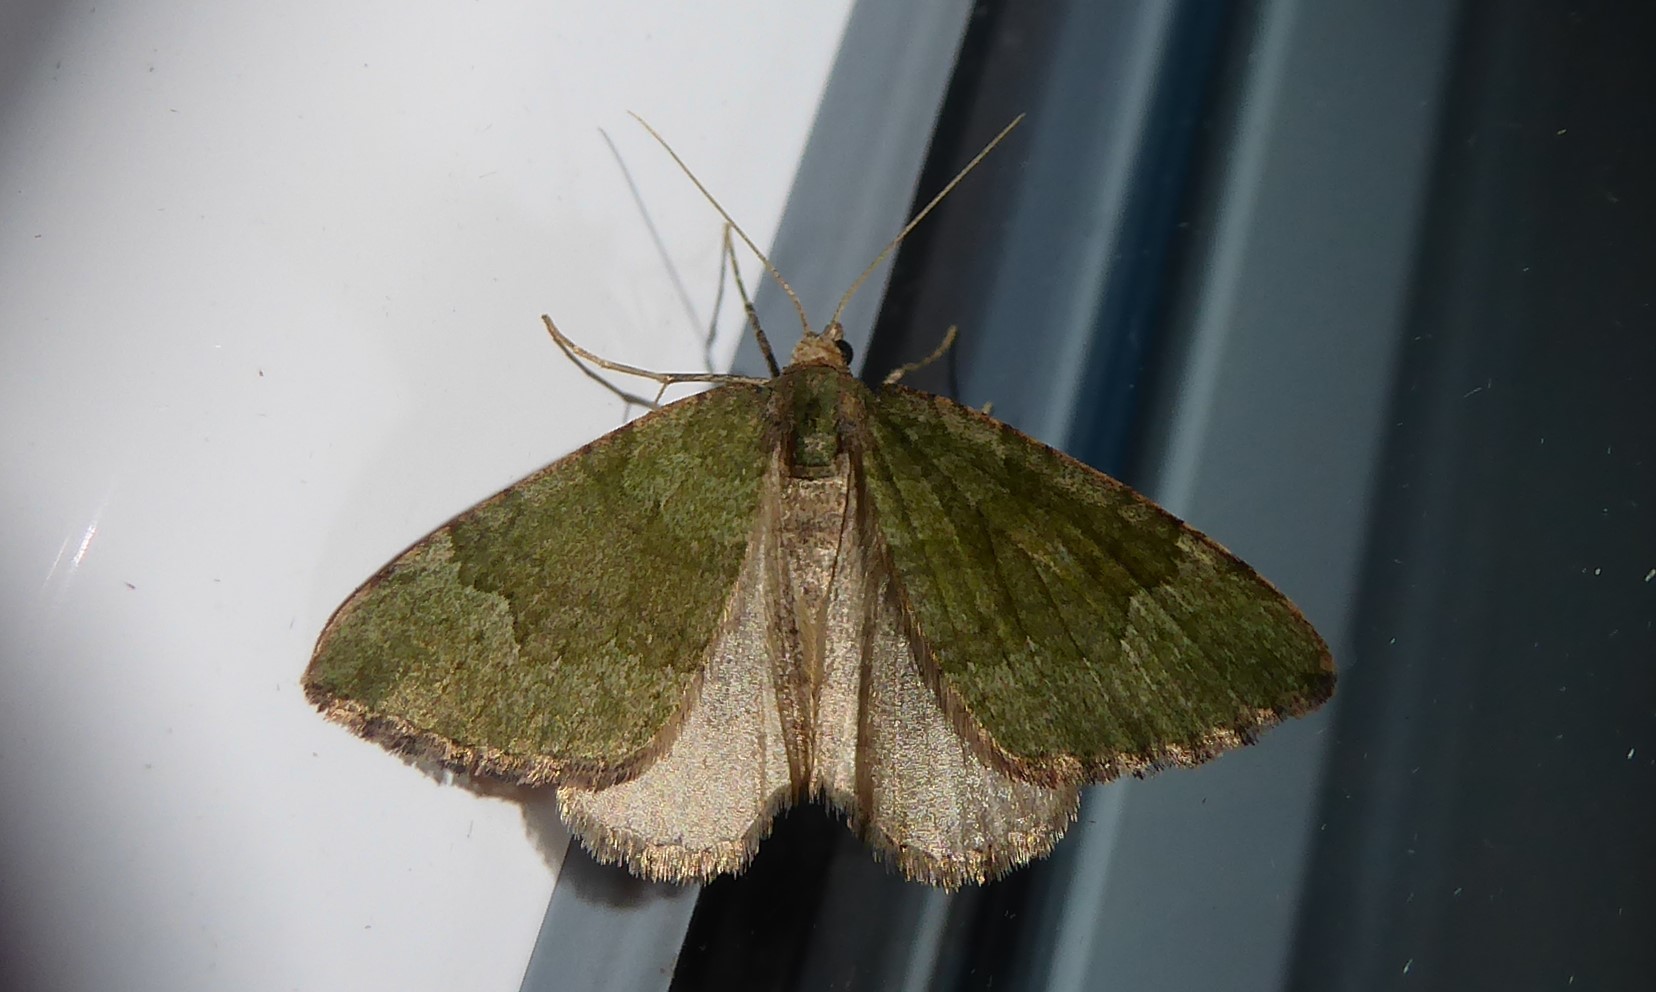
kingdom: Animalia
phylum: Arthropoda
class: Insecta
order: Lepidoptera
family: Geometridae
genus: Epyaxa
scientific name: Epyaxa rosearia
